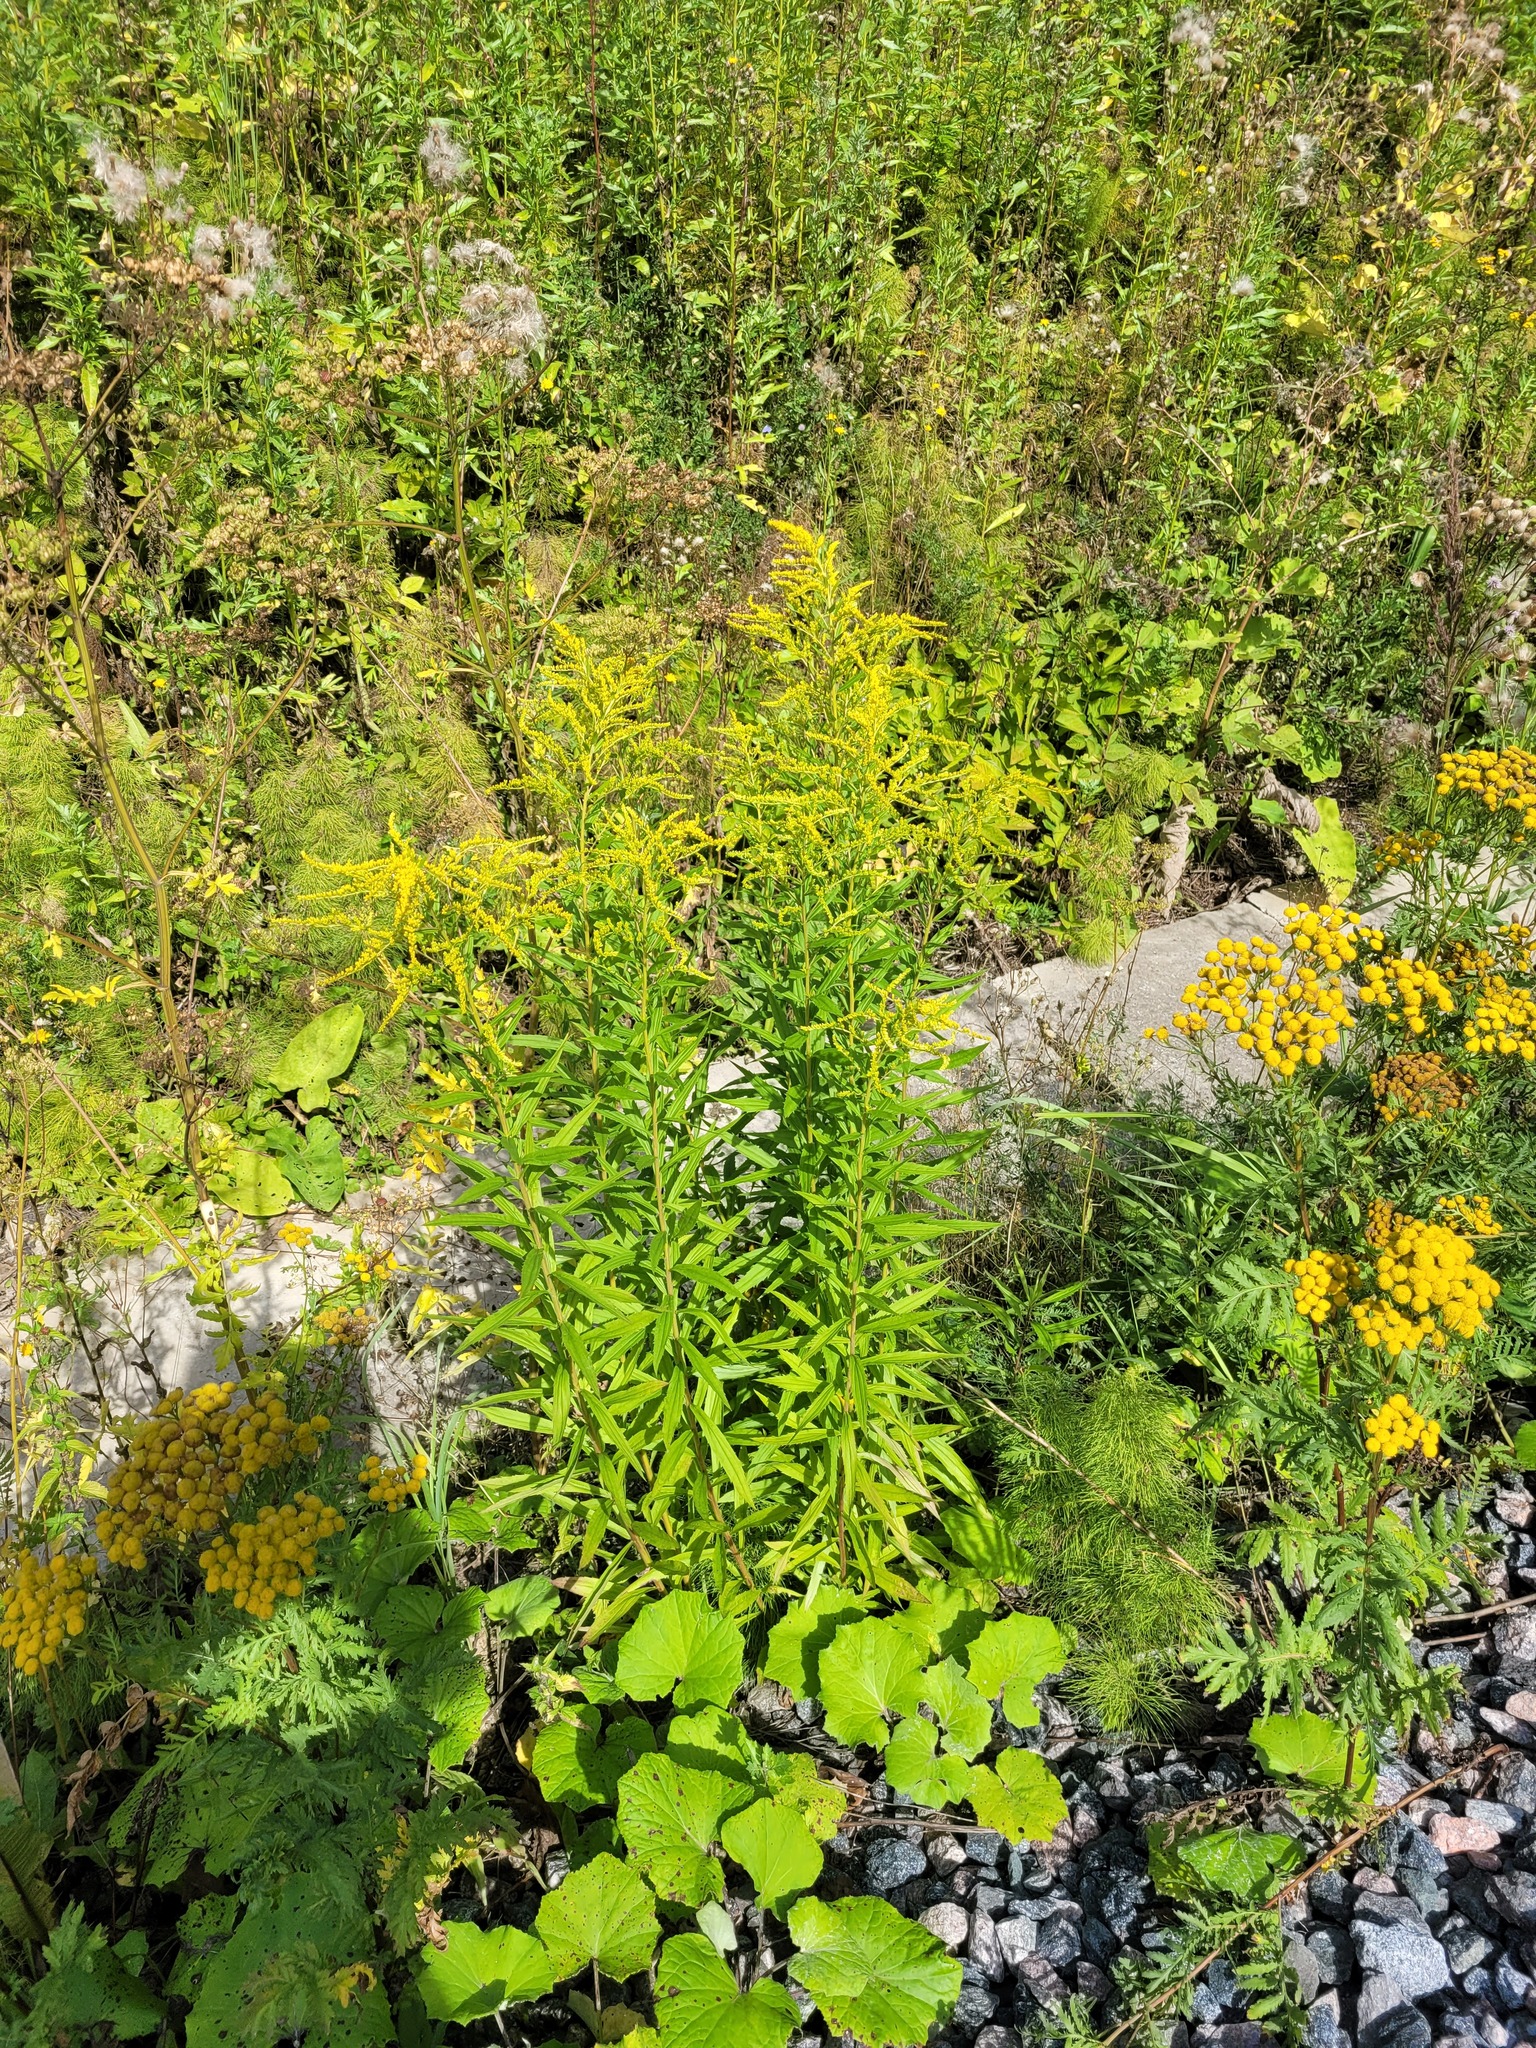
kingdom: Plantae
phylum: Tracheophyta
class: Magnoliopsida
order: Asterales
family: Asteraceae
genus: Solidago
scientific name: Solidago canadensis
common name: Canada goldenrod
